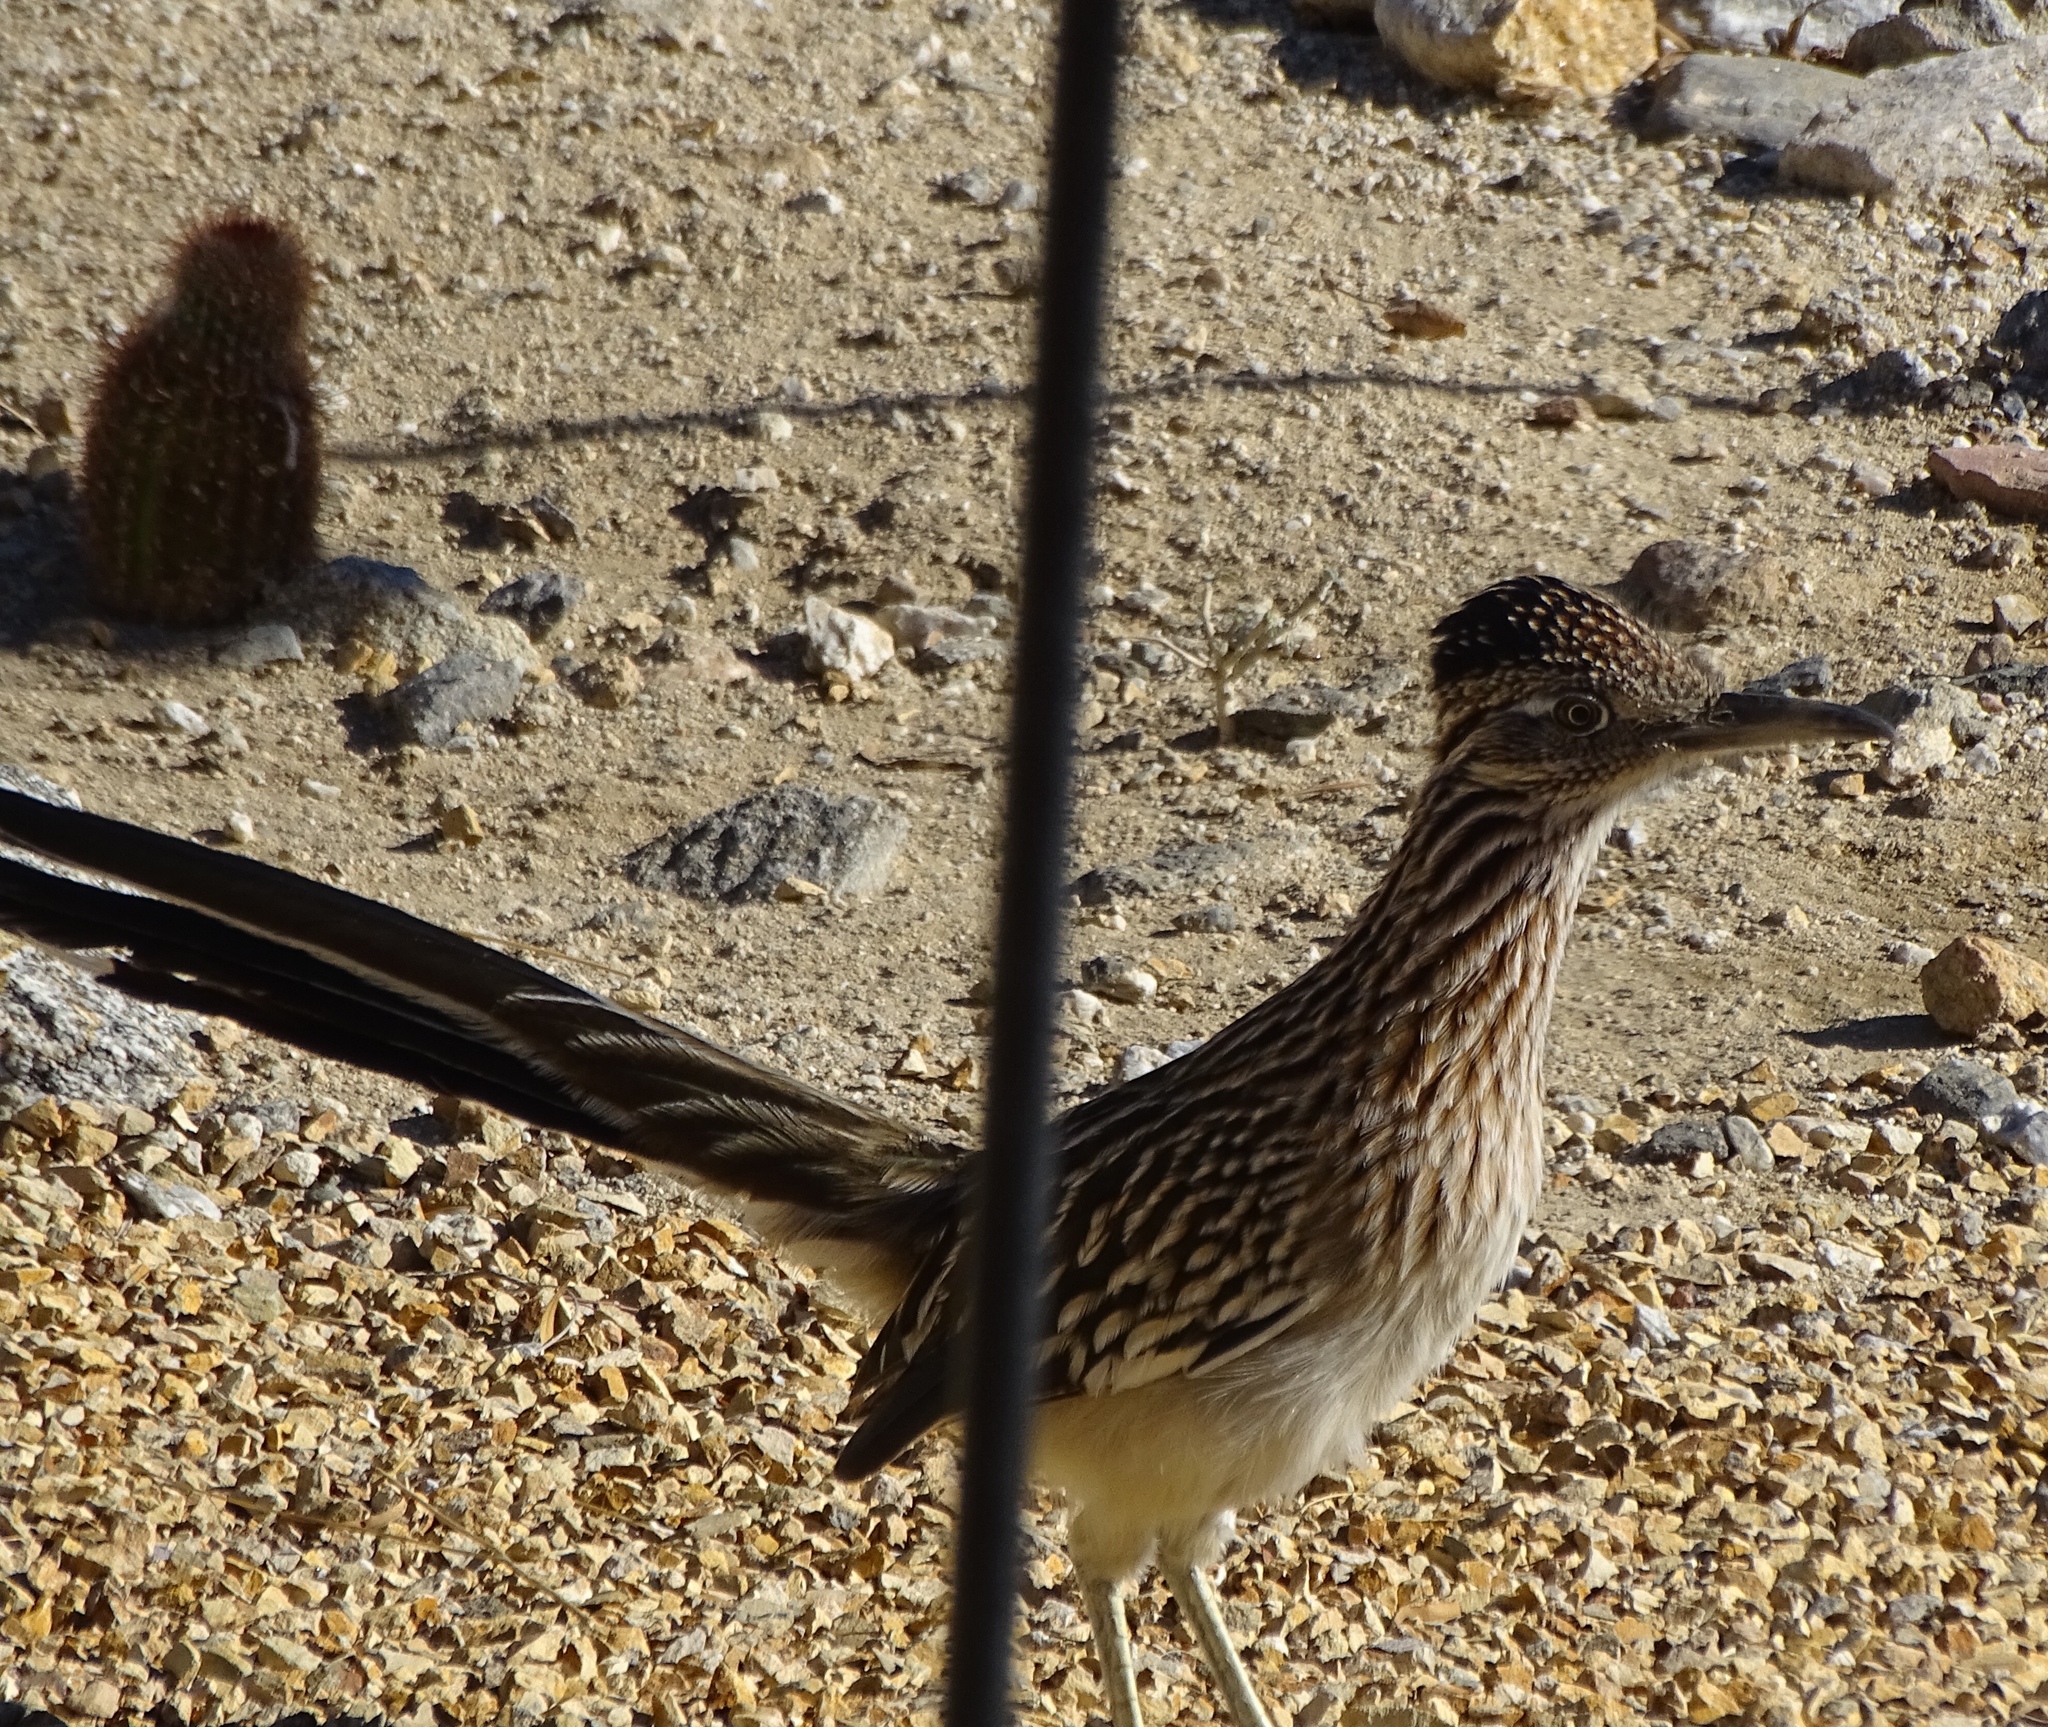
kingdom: Animalia
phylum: Chordata
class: Aves
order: Cuculiformes
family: Cuculidae
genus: Geococcyx
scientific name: Geococcyx californianus
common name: Greater roadrunner
